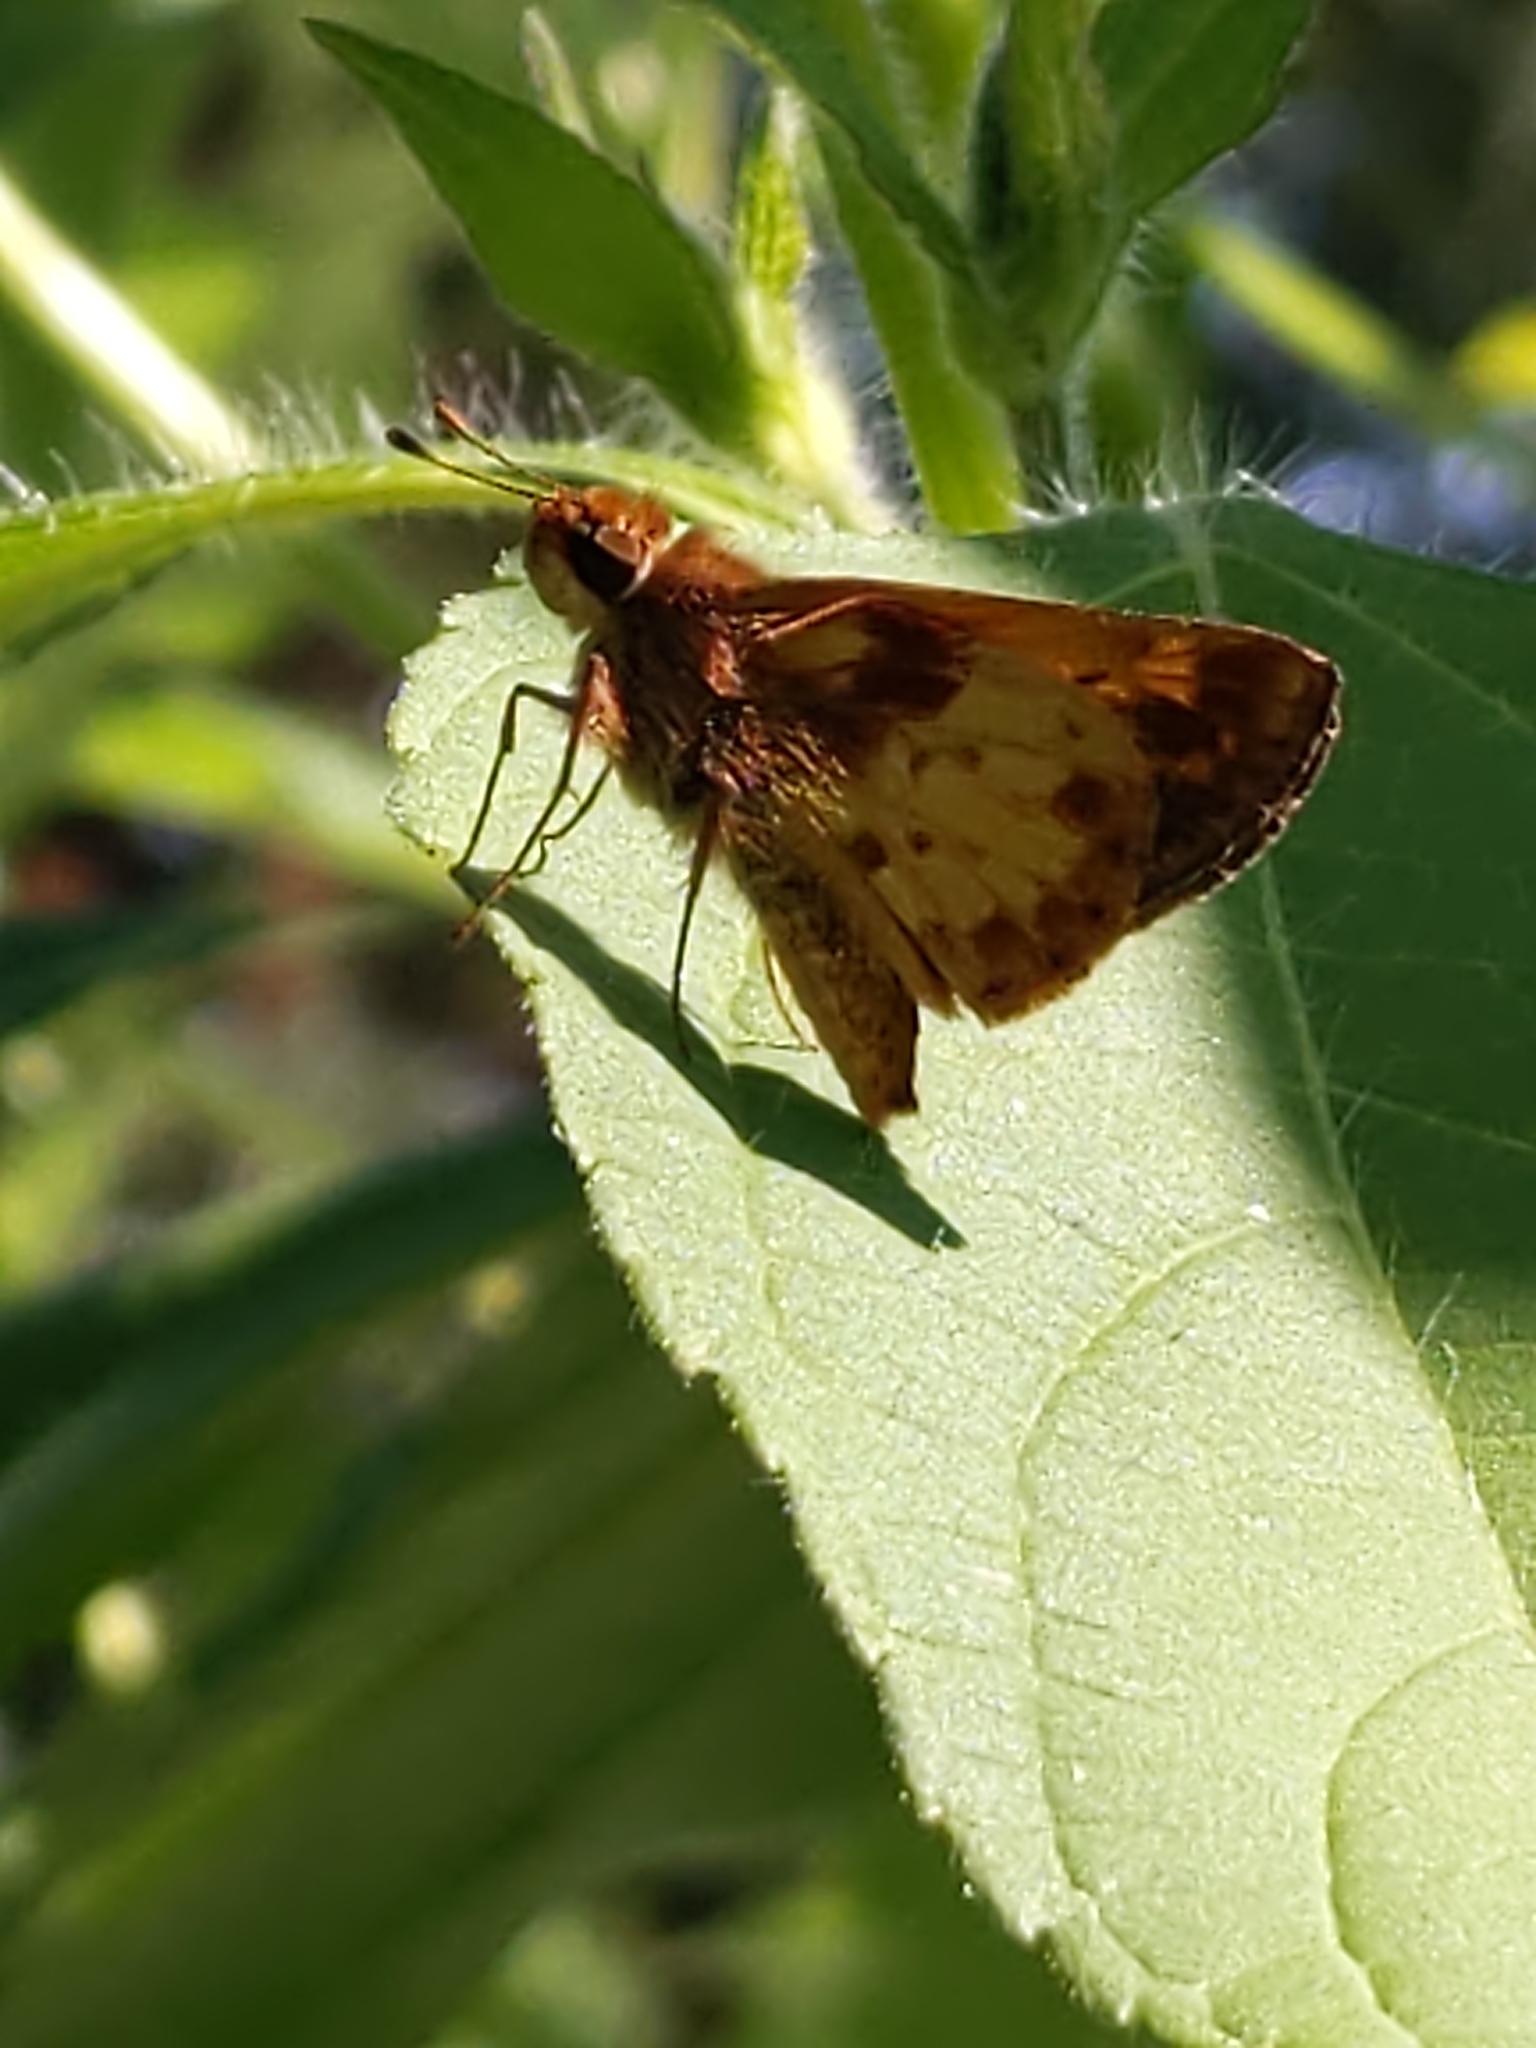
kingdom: Animalia
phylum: Arthropoda
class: Insecta
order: Lepidoptera
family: Hesperiidae
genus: Lon
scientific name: Lon zabulon
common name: Zabulon skipper
